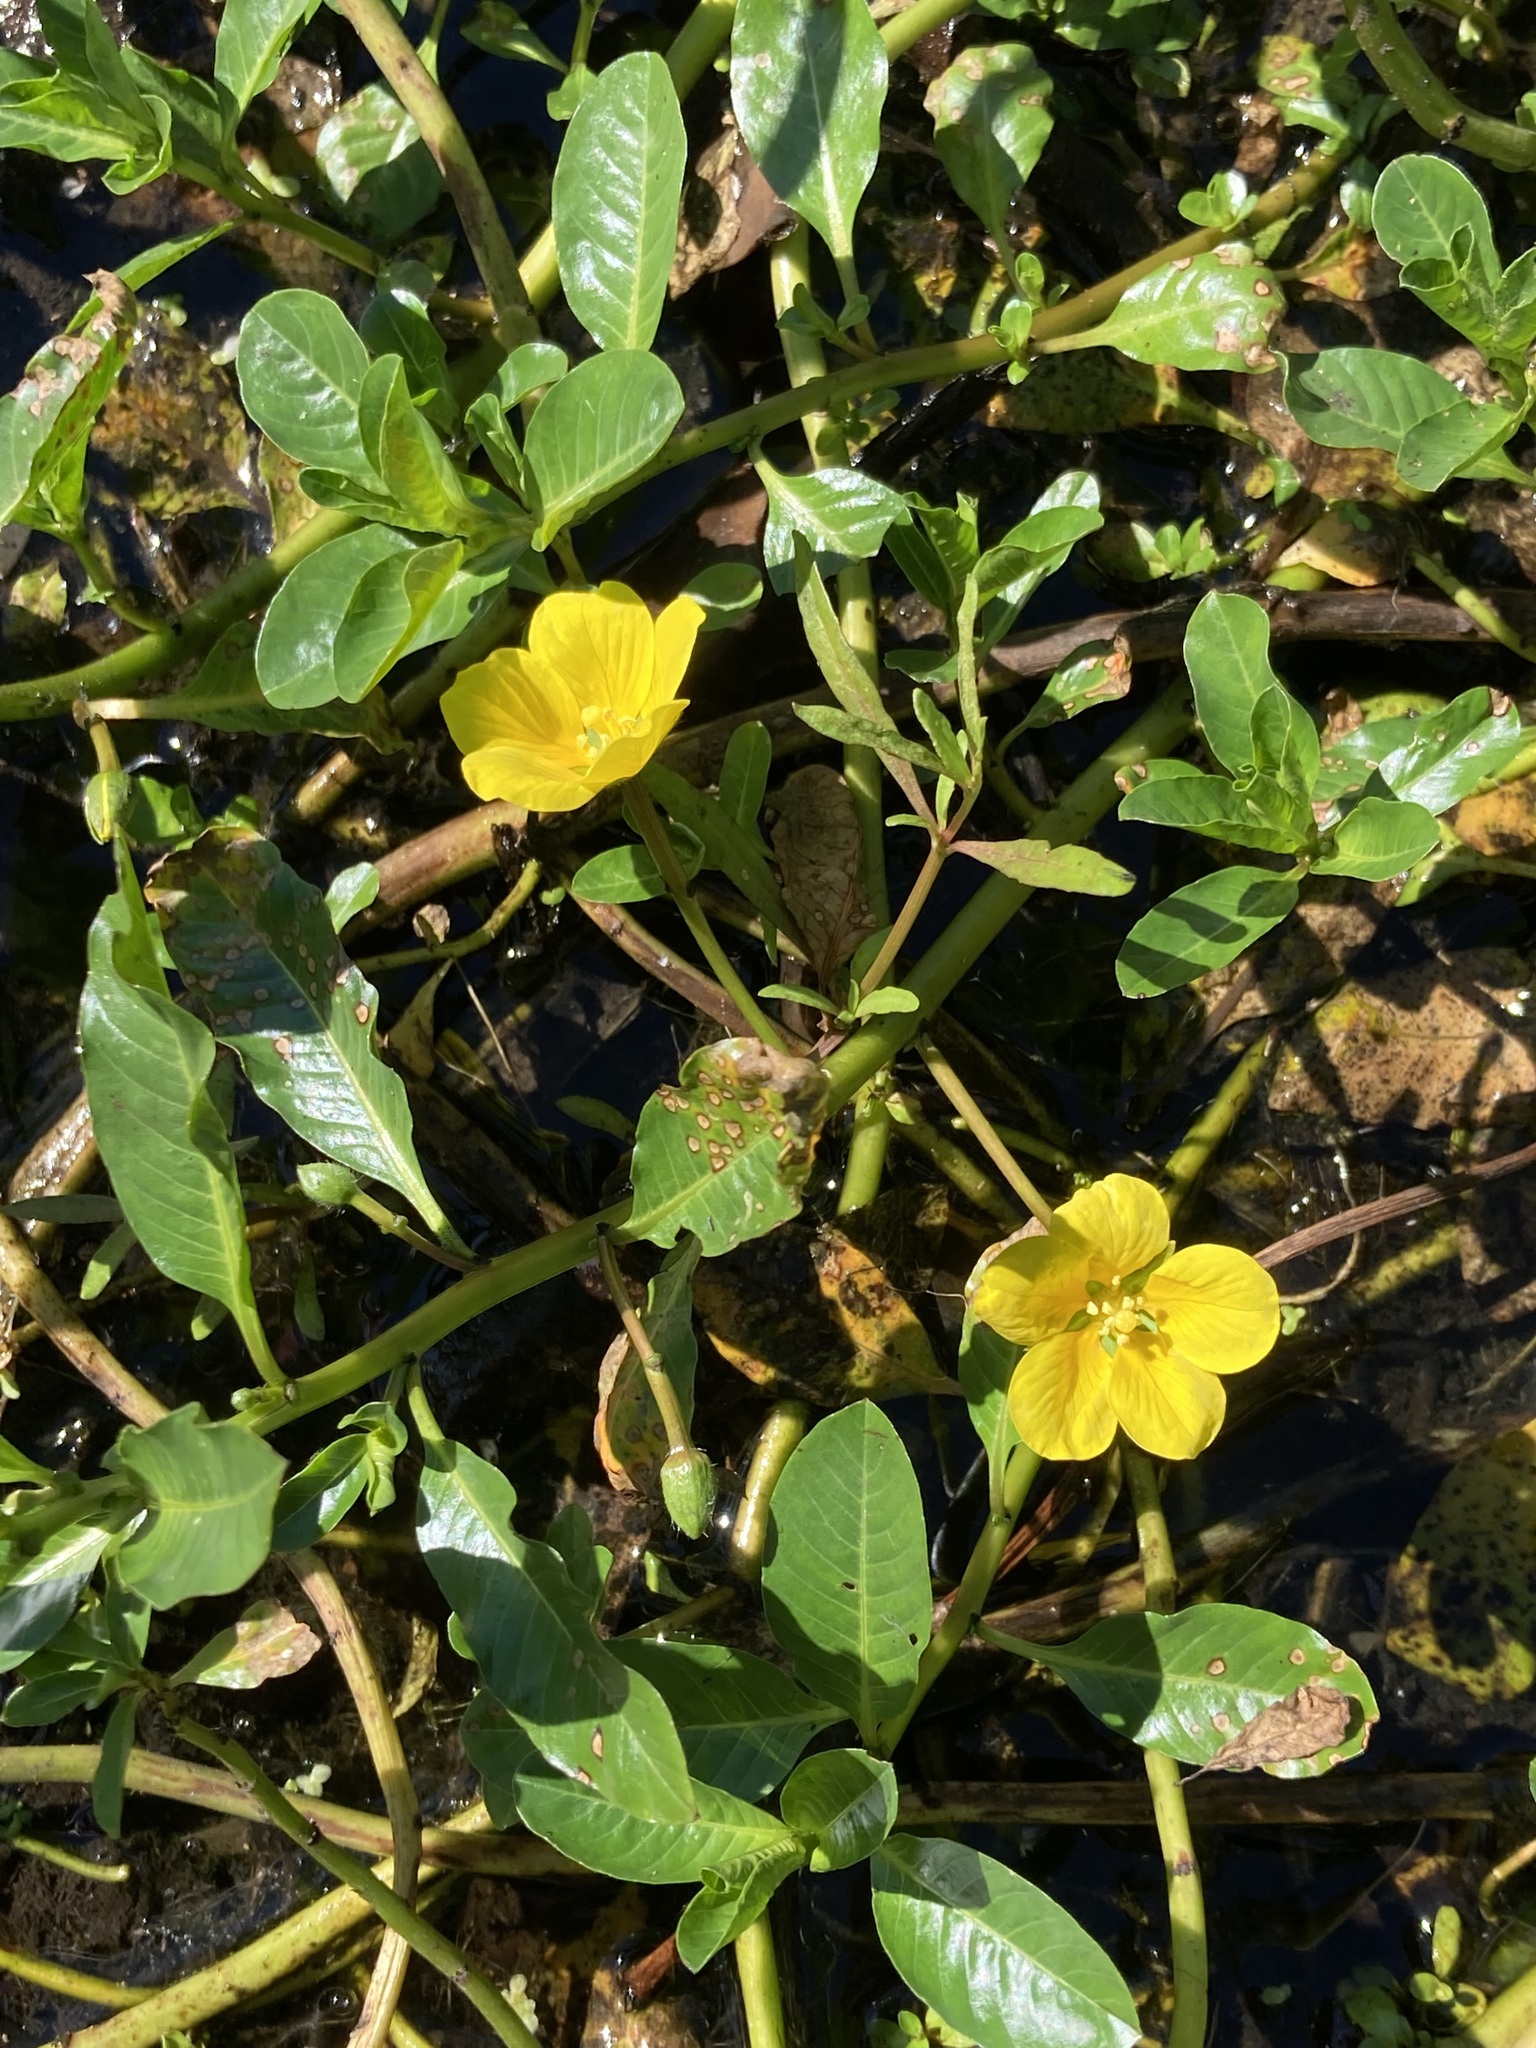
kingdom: Plantae
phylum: Tracheophyta
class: Magnoliopsida
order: Myrtales
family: Onagraceae
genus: Ludwigia
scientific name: Ludwigia peploides
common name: Floating primrose-willow
